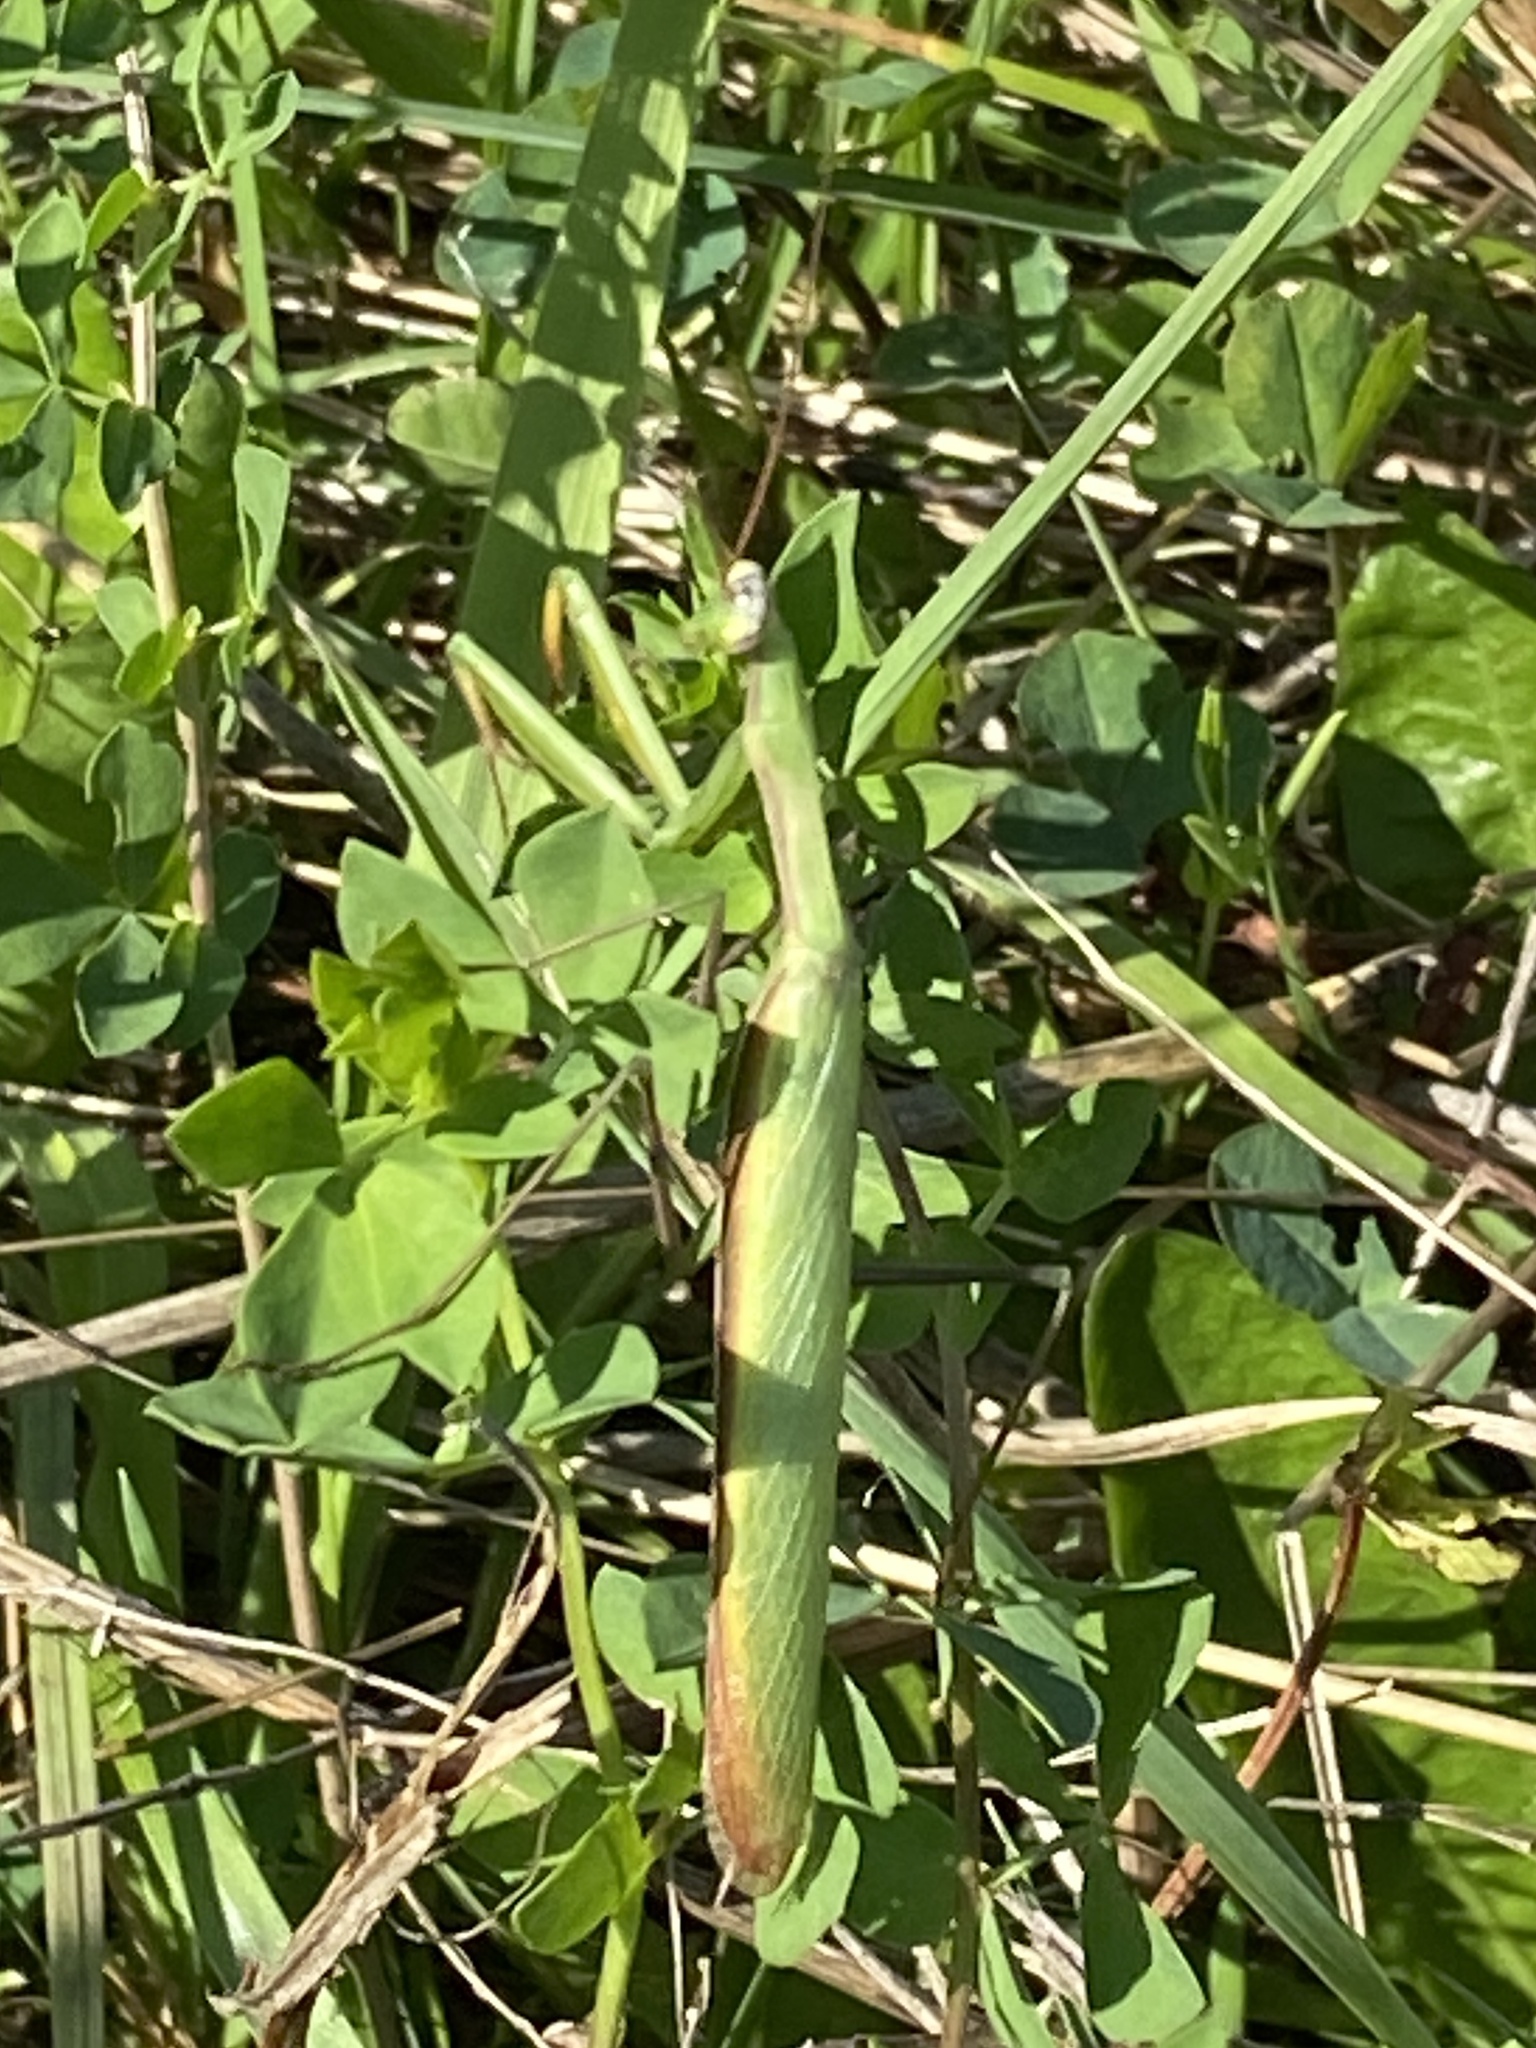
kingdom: Animalia
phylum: Arthropoda
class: Insecta
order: Mantodea
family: Mantidae
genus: Mantis
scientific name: Mantis religiosa
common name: Praying mantis
